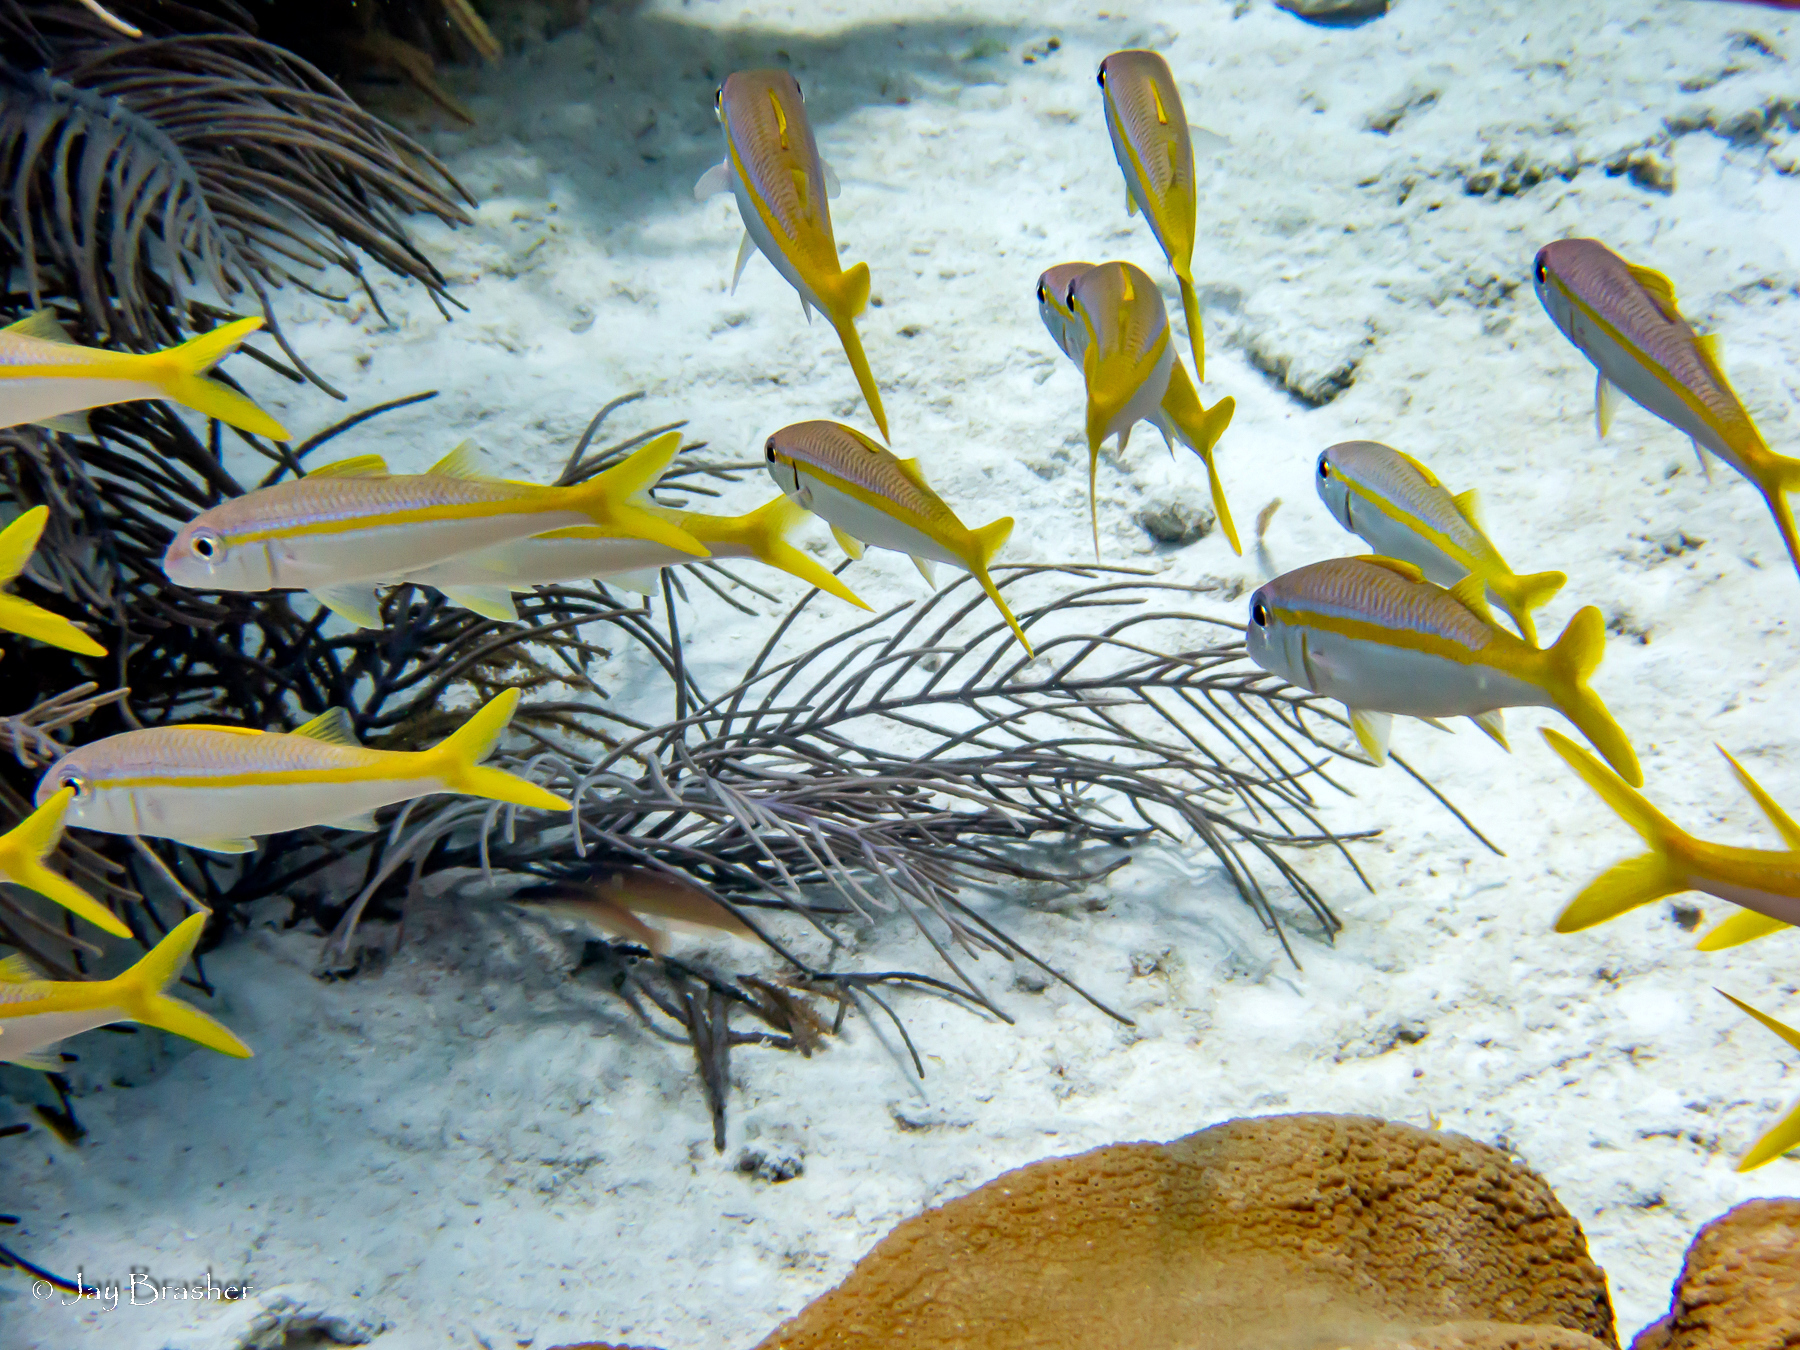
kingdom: Animalia
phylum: Chordata
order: Perciformes
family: Mullidae
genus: Mulloidichthys
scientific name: Mulloidichthys martinicus
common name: Yellow goatfish
